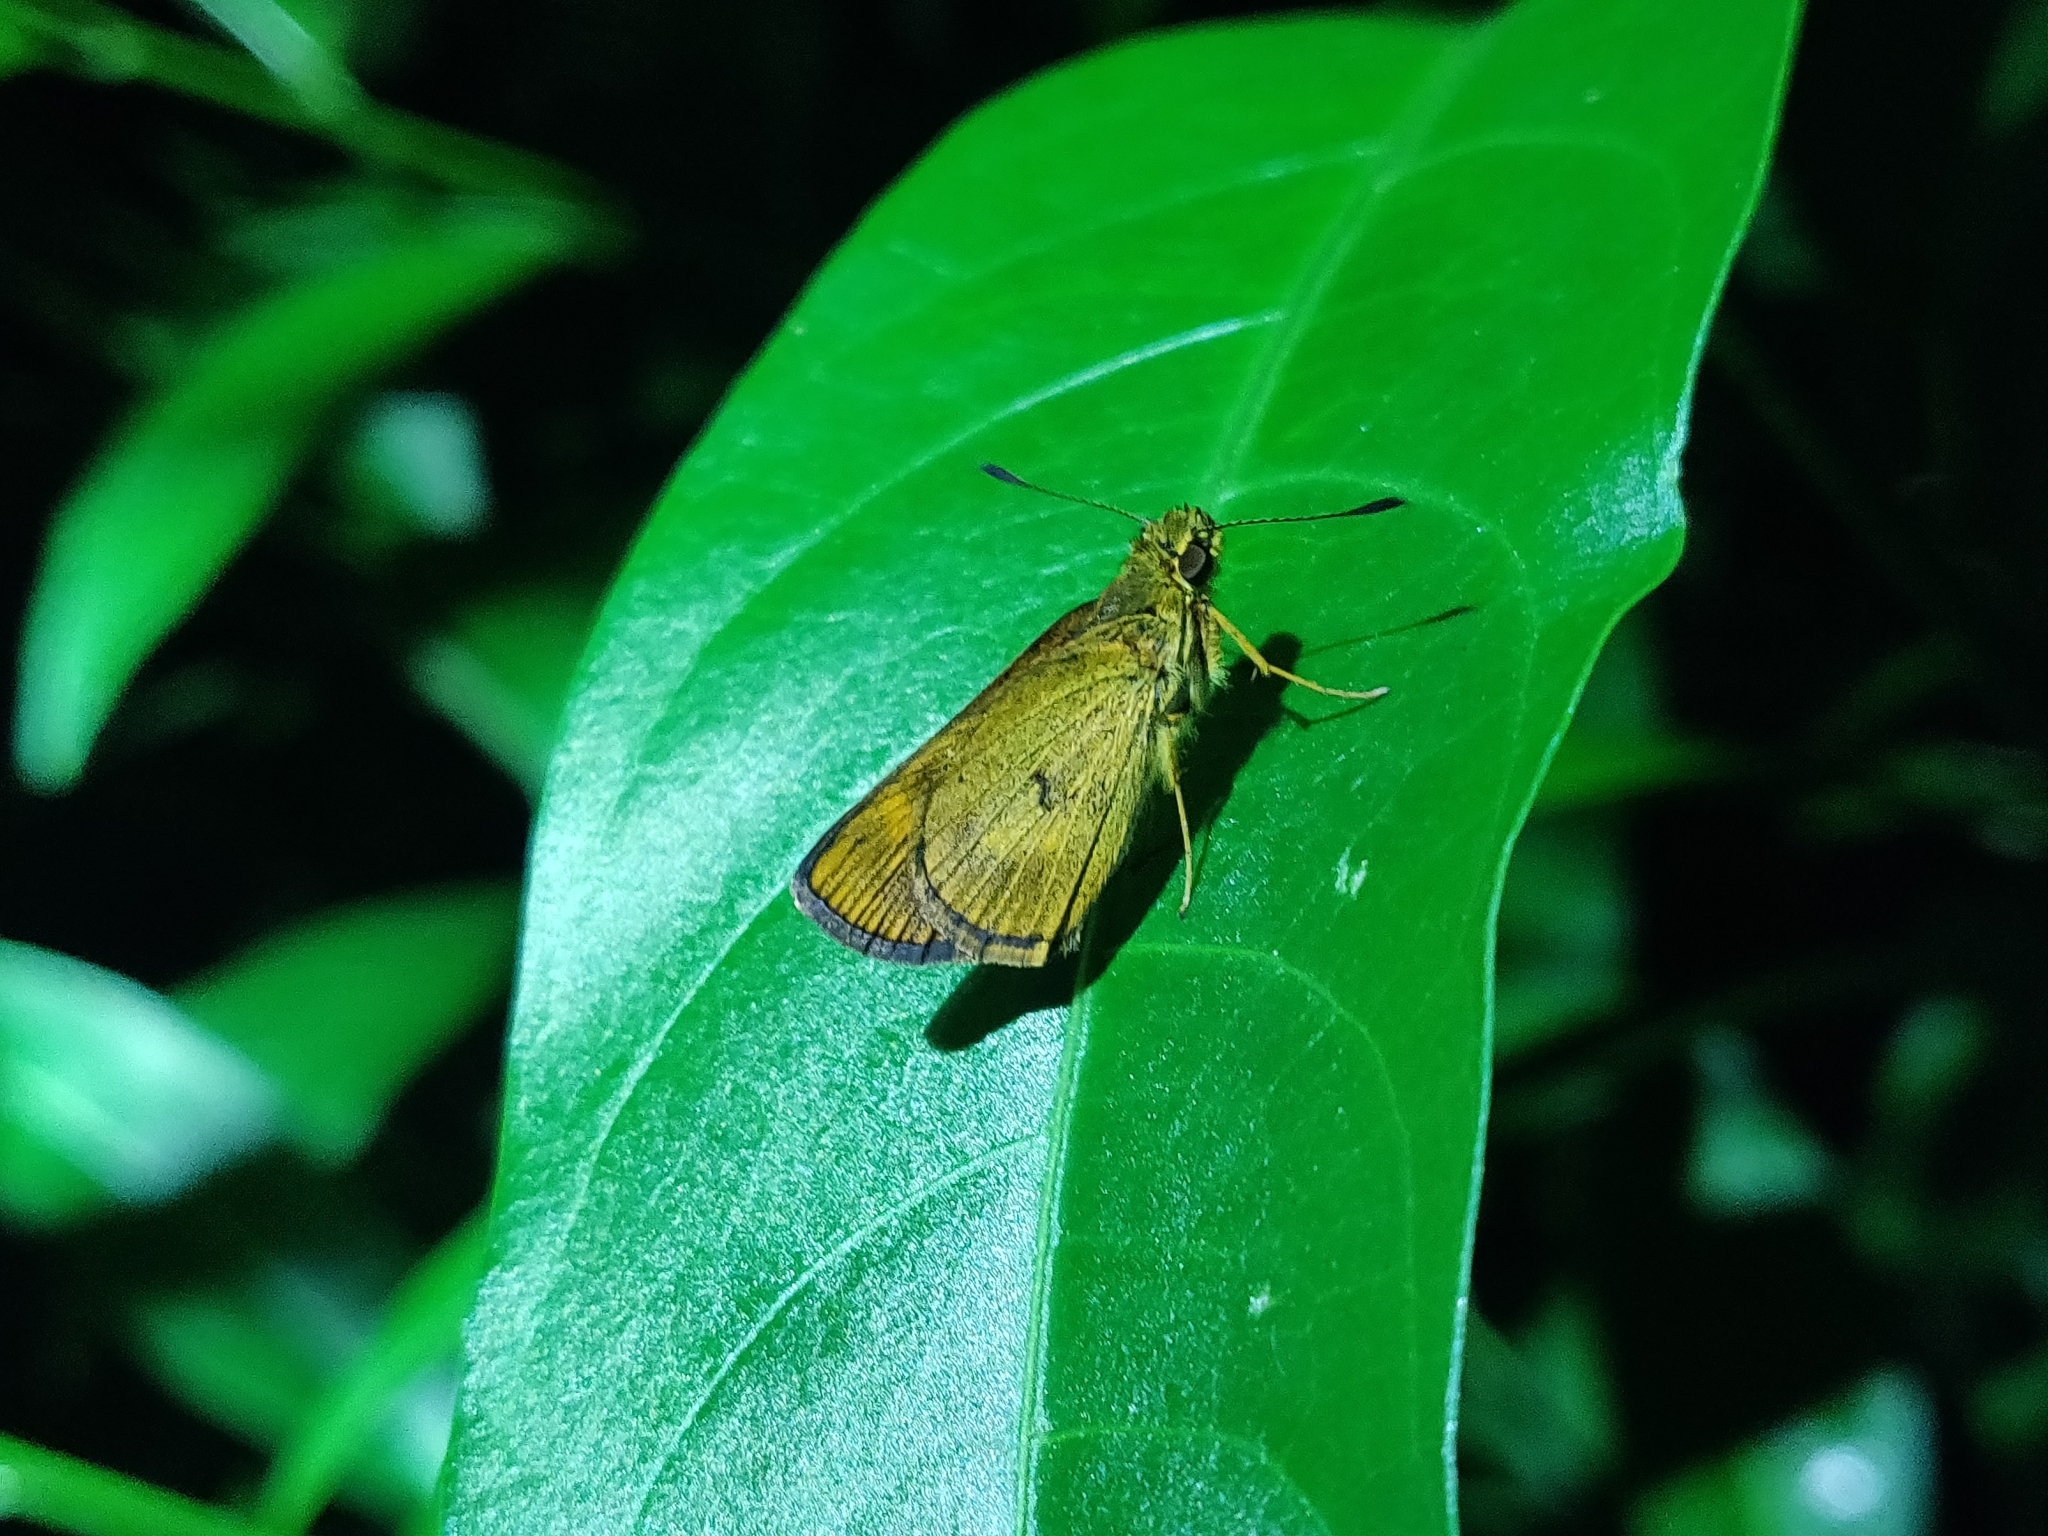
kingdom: Animalia
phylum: Arthropoda
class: Insecta
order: Lepidoptera
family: Hesperiidae
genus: Oriens
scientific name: Oriens concinna
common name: Sahyadri dartlet
